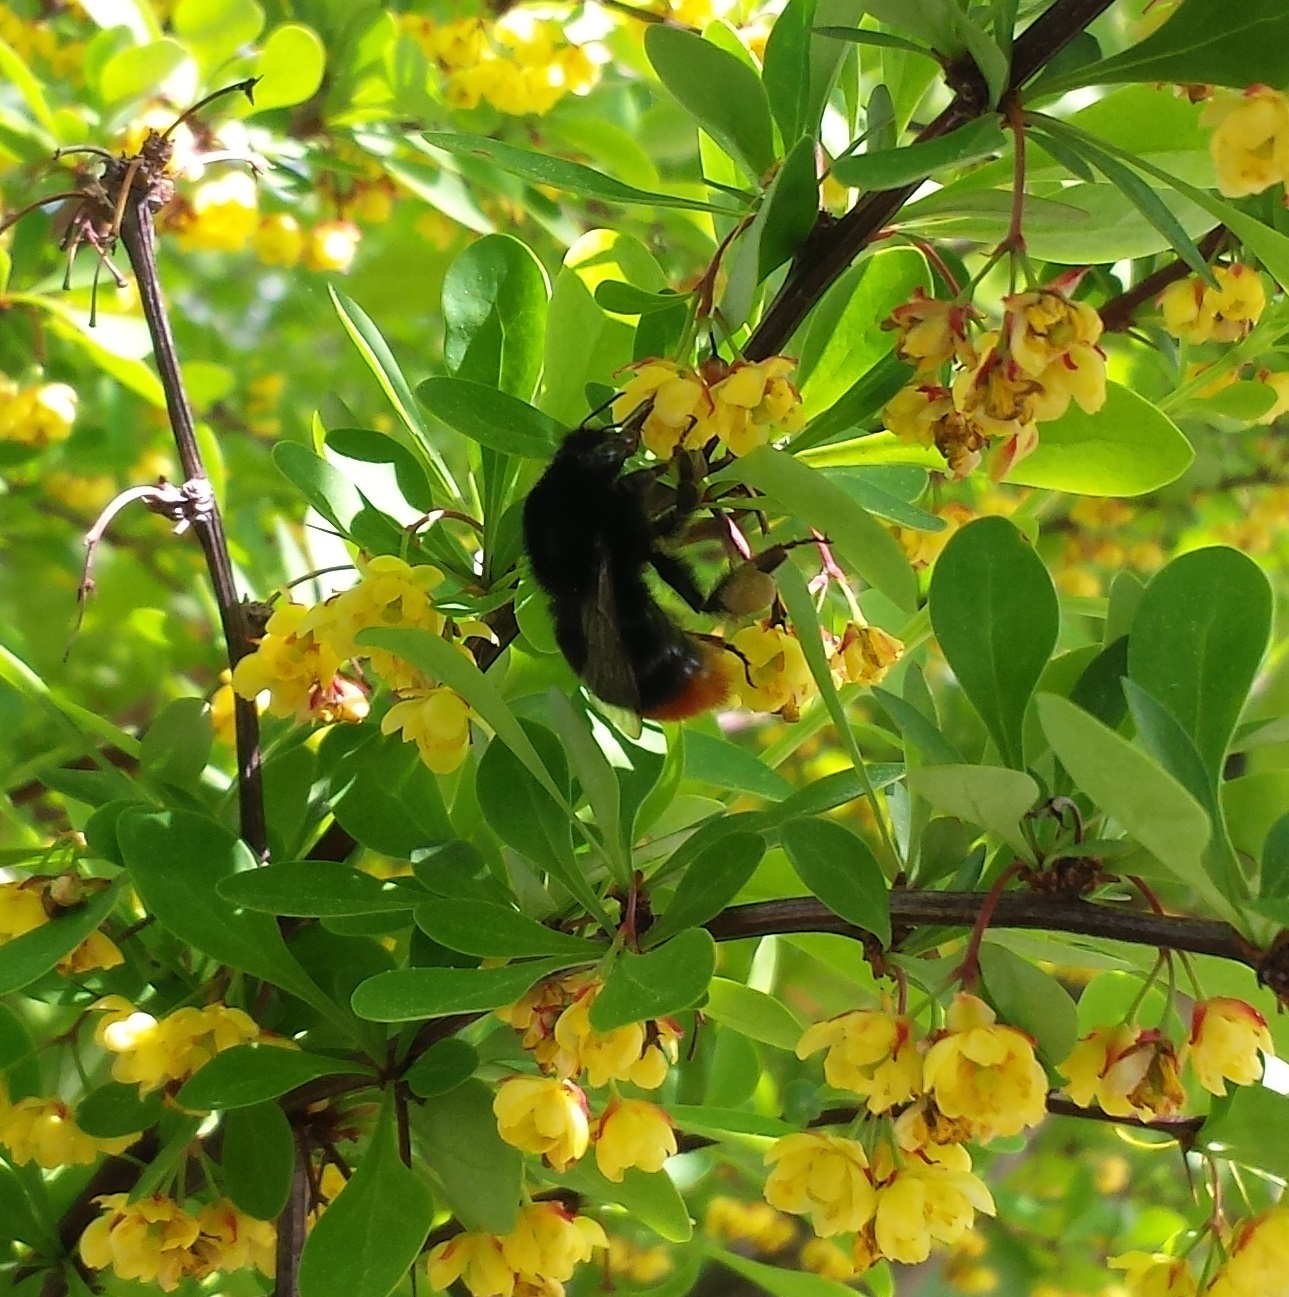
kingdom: Animalia
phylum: Arthropoda
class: Insecta
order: Hymenoptera
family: Apidae
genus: Bombus
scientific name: Bombus lapidarius
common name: Large red-tailed humble-bee
